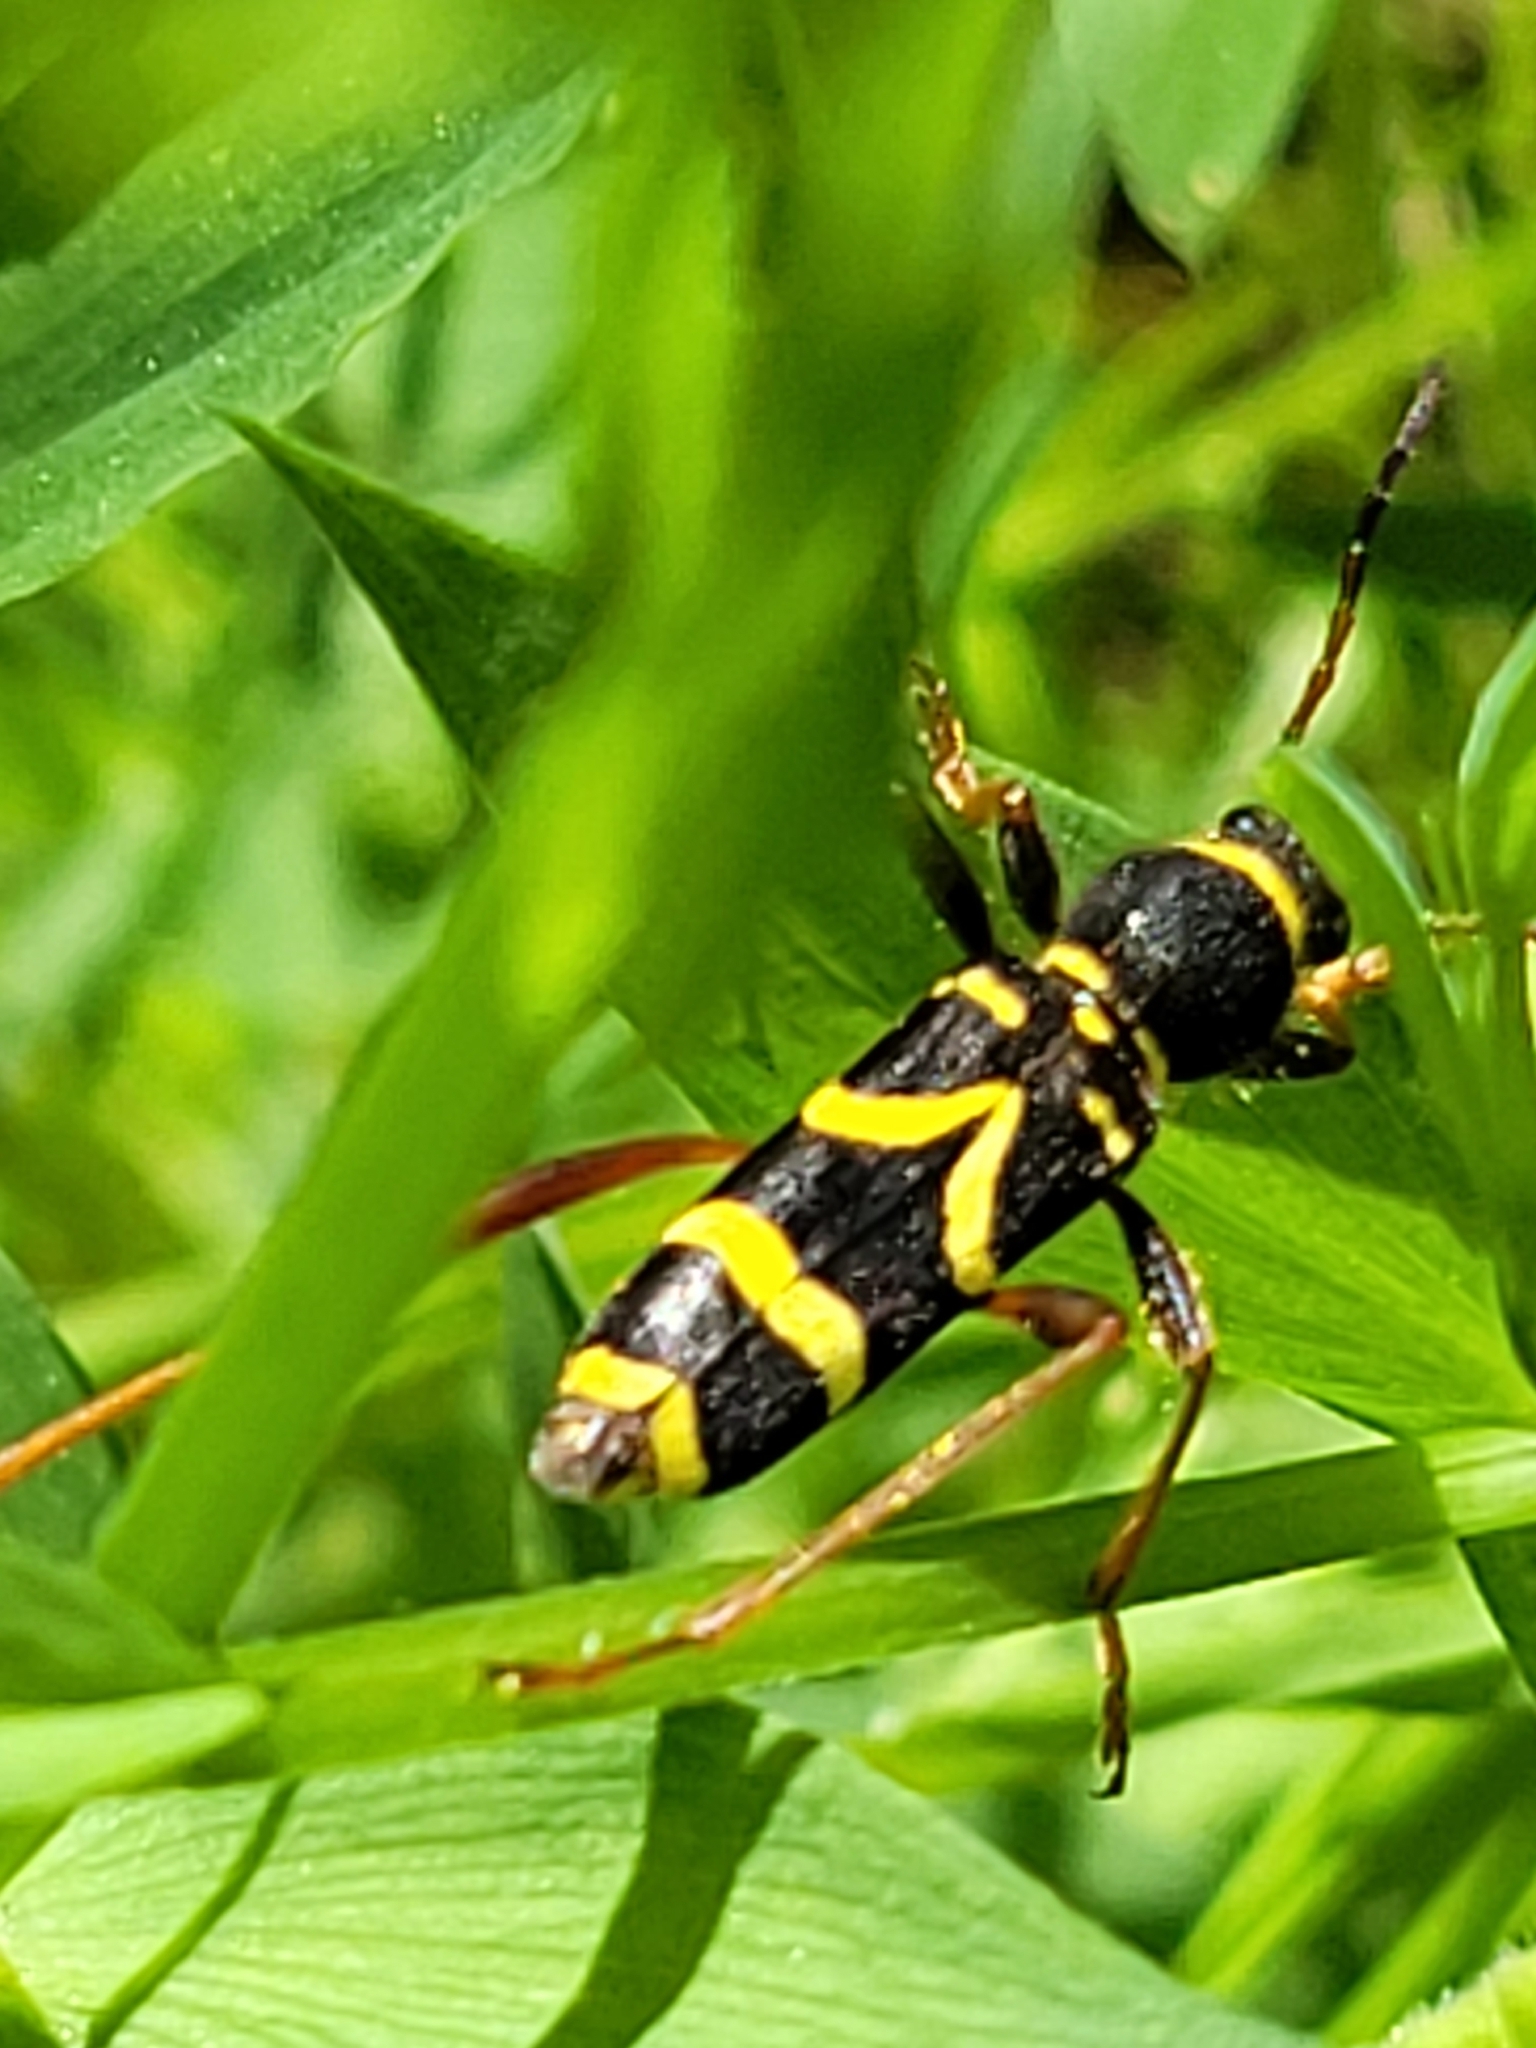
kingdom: Animalia
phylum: Arthropoda
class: Insecta
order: Coleoptera
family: Cerambycidae
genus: Clytus
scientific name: Clytus arietis
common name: Wasp beetle
